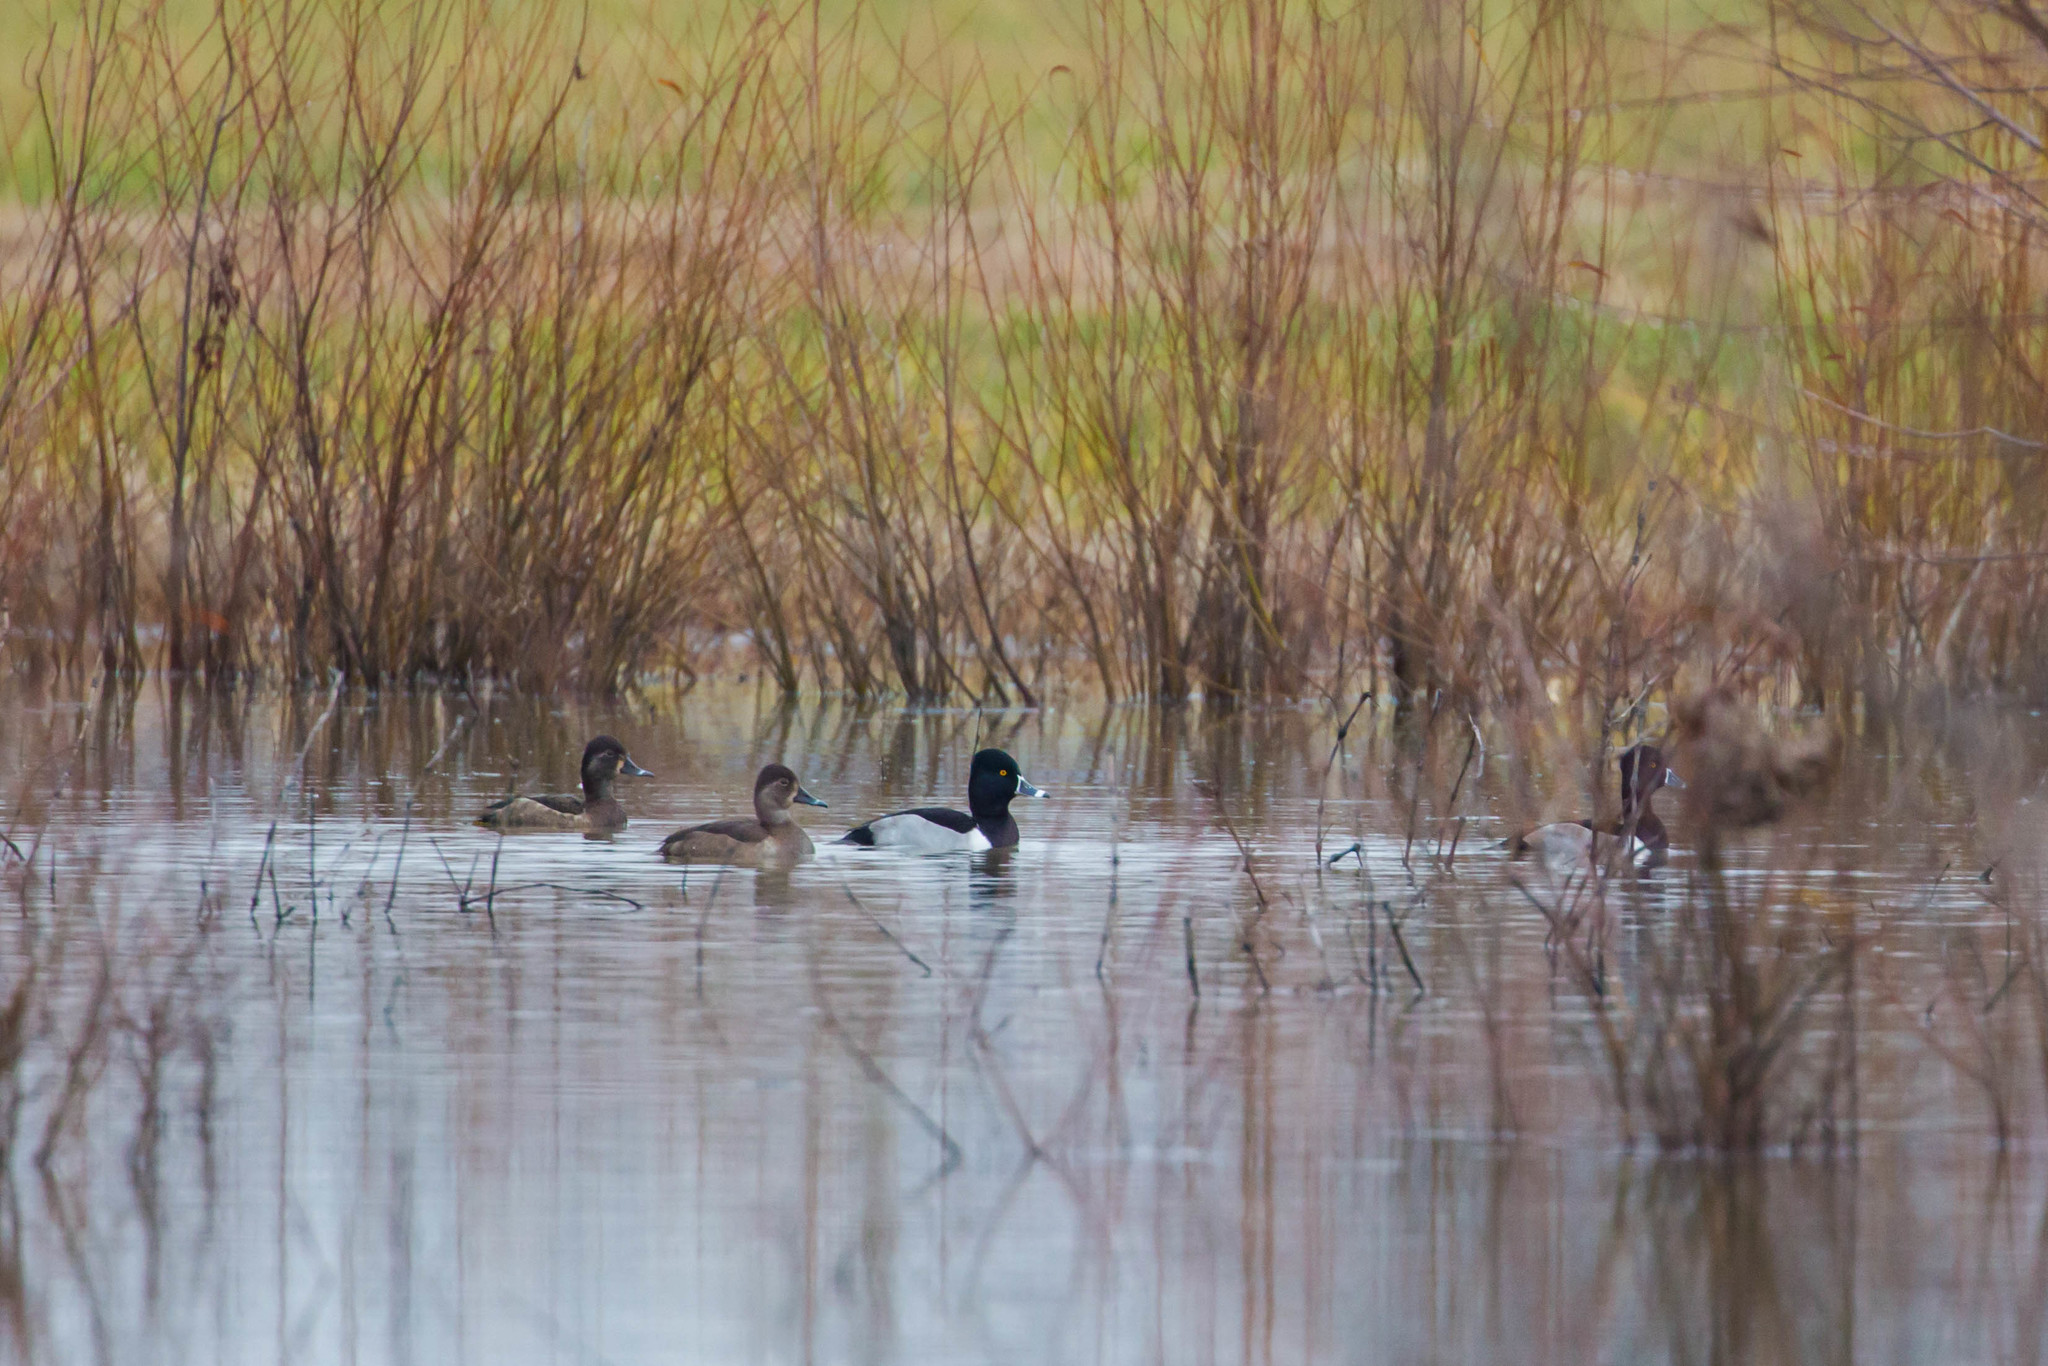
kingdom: Animalia
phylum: Chordata
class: Aves
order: Anseriformes
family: Anatidae
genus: Aythya
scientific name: Aythya collaris
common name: Ring-necked duck
